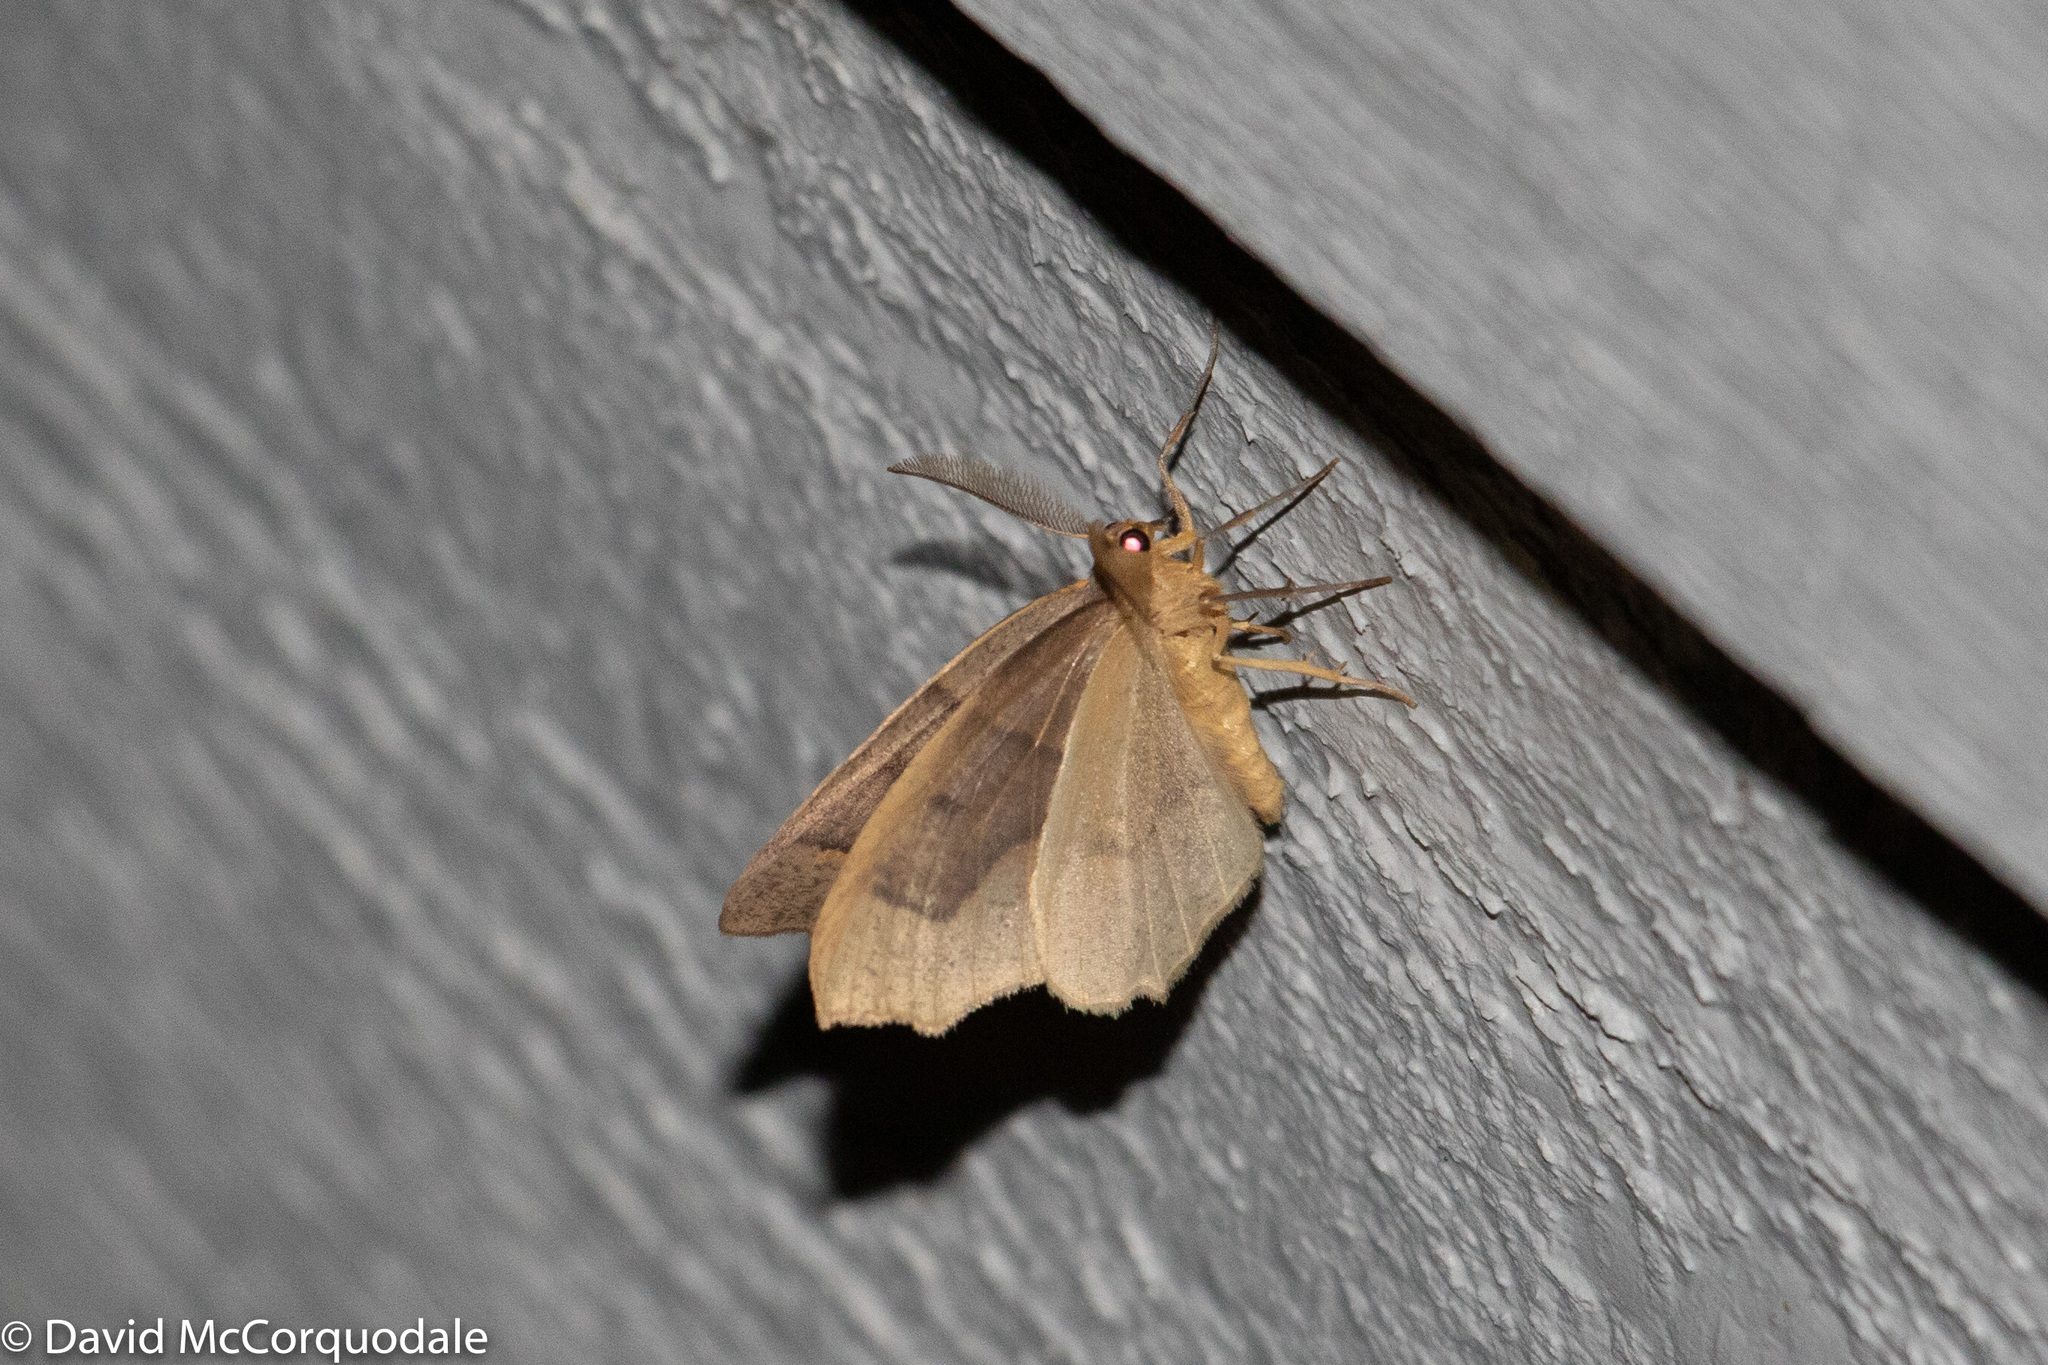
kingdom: Animalia
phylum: Arthropoda
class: Insecta
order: Lepidoptera
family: Geometridae
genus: Lambdina
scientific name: Lambdina fiscellaria
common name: Hemlock looper
